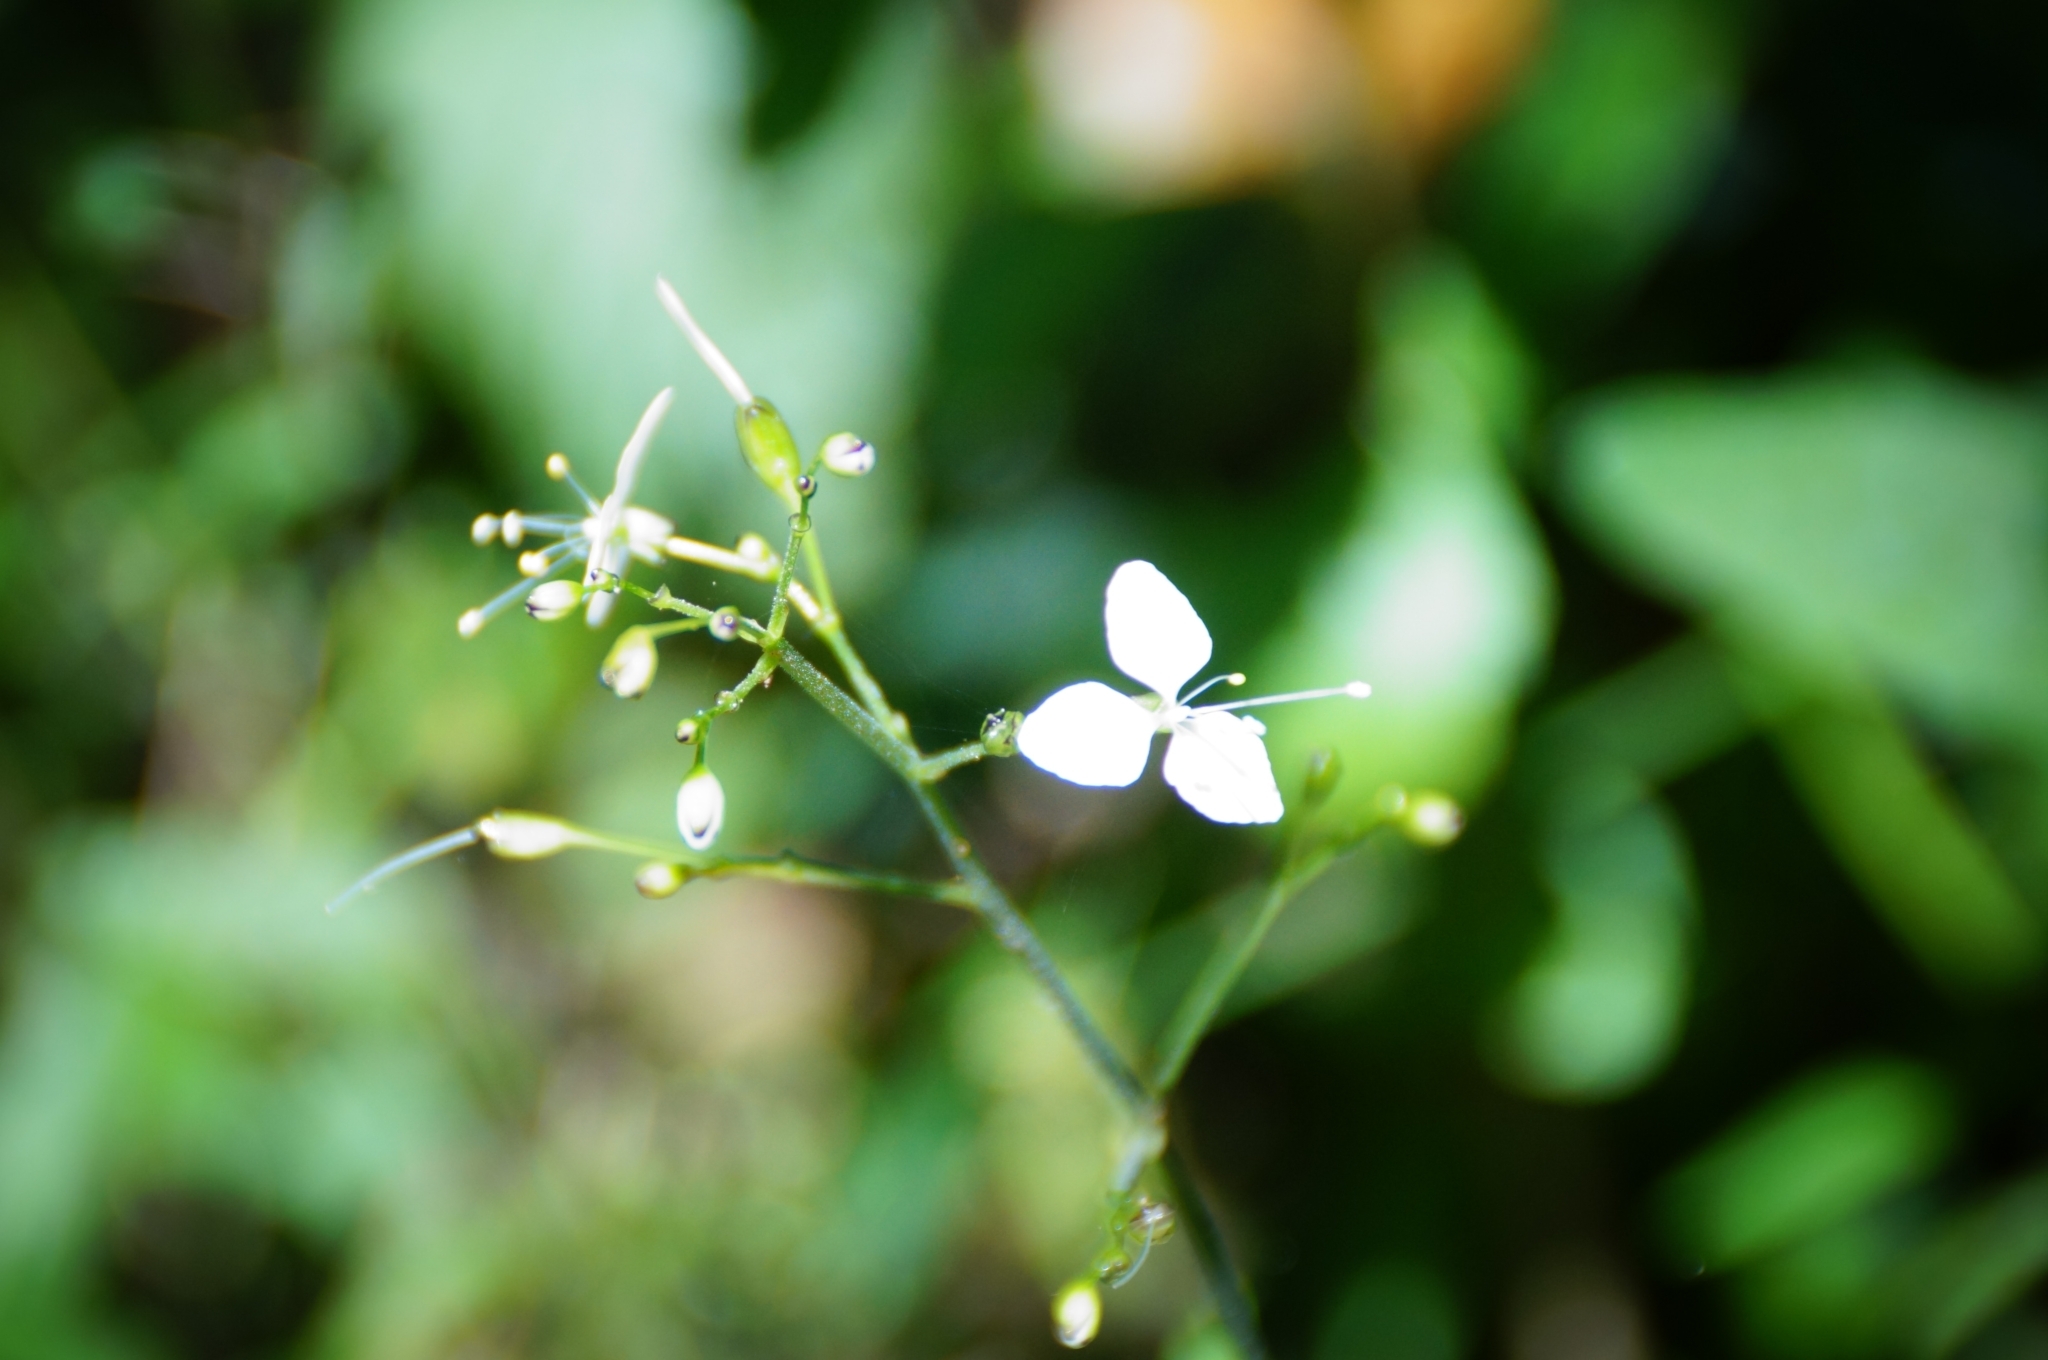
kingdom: Plantae
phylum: Tracheophyta
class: Liliopsida
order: Commelinales
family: Commelinaceae
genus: Aneilema
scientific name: Aneilema acuminatum
